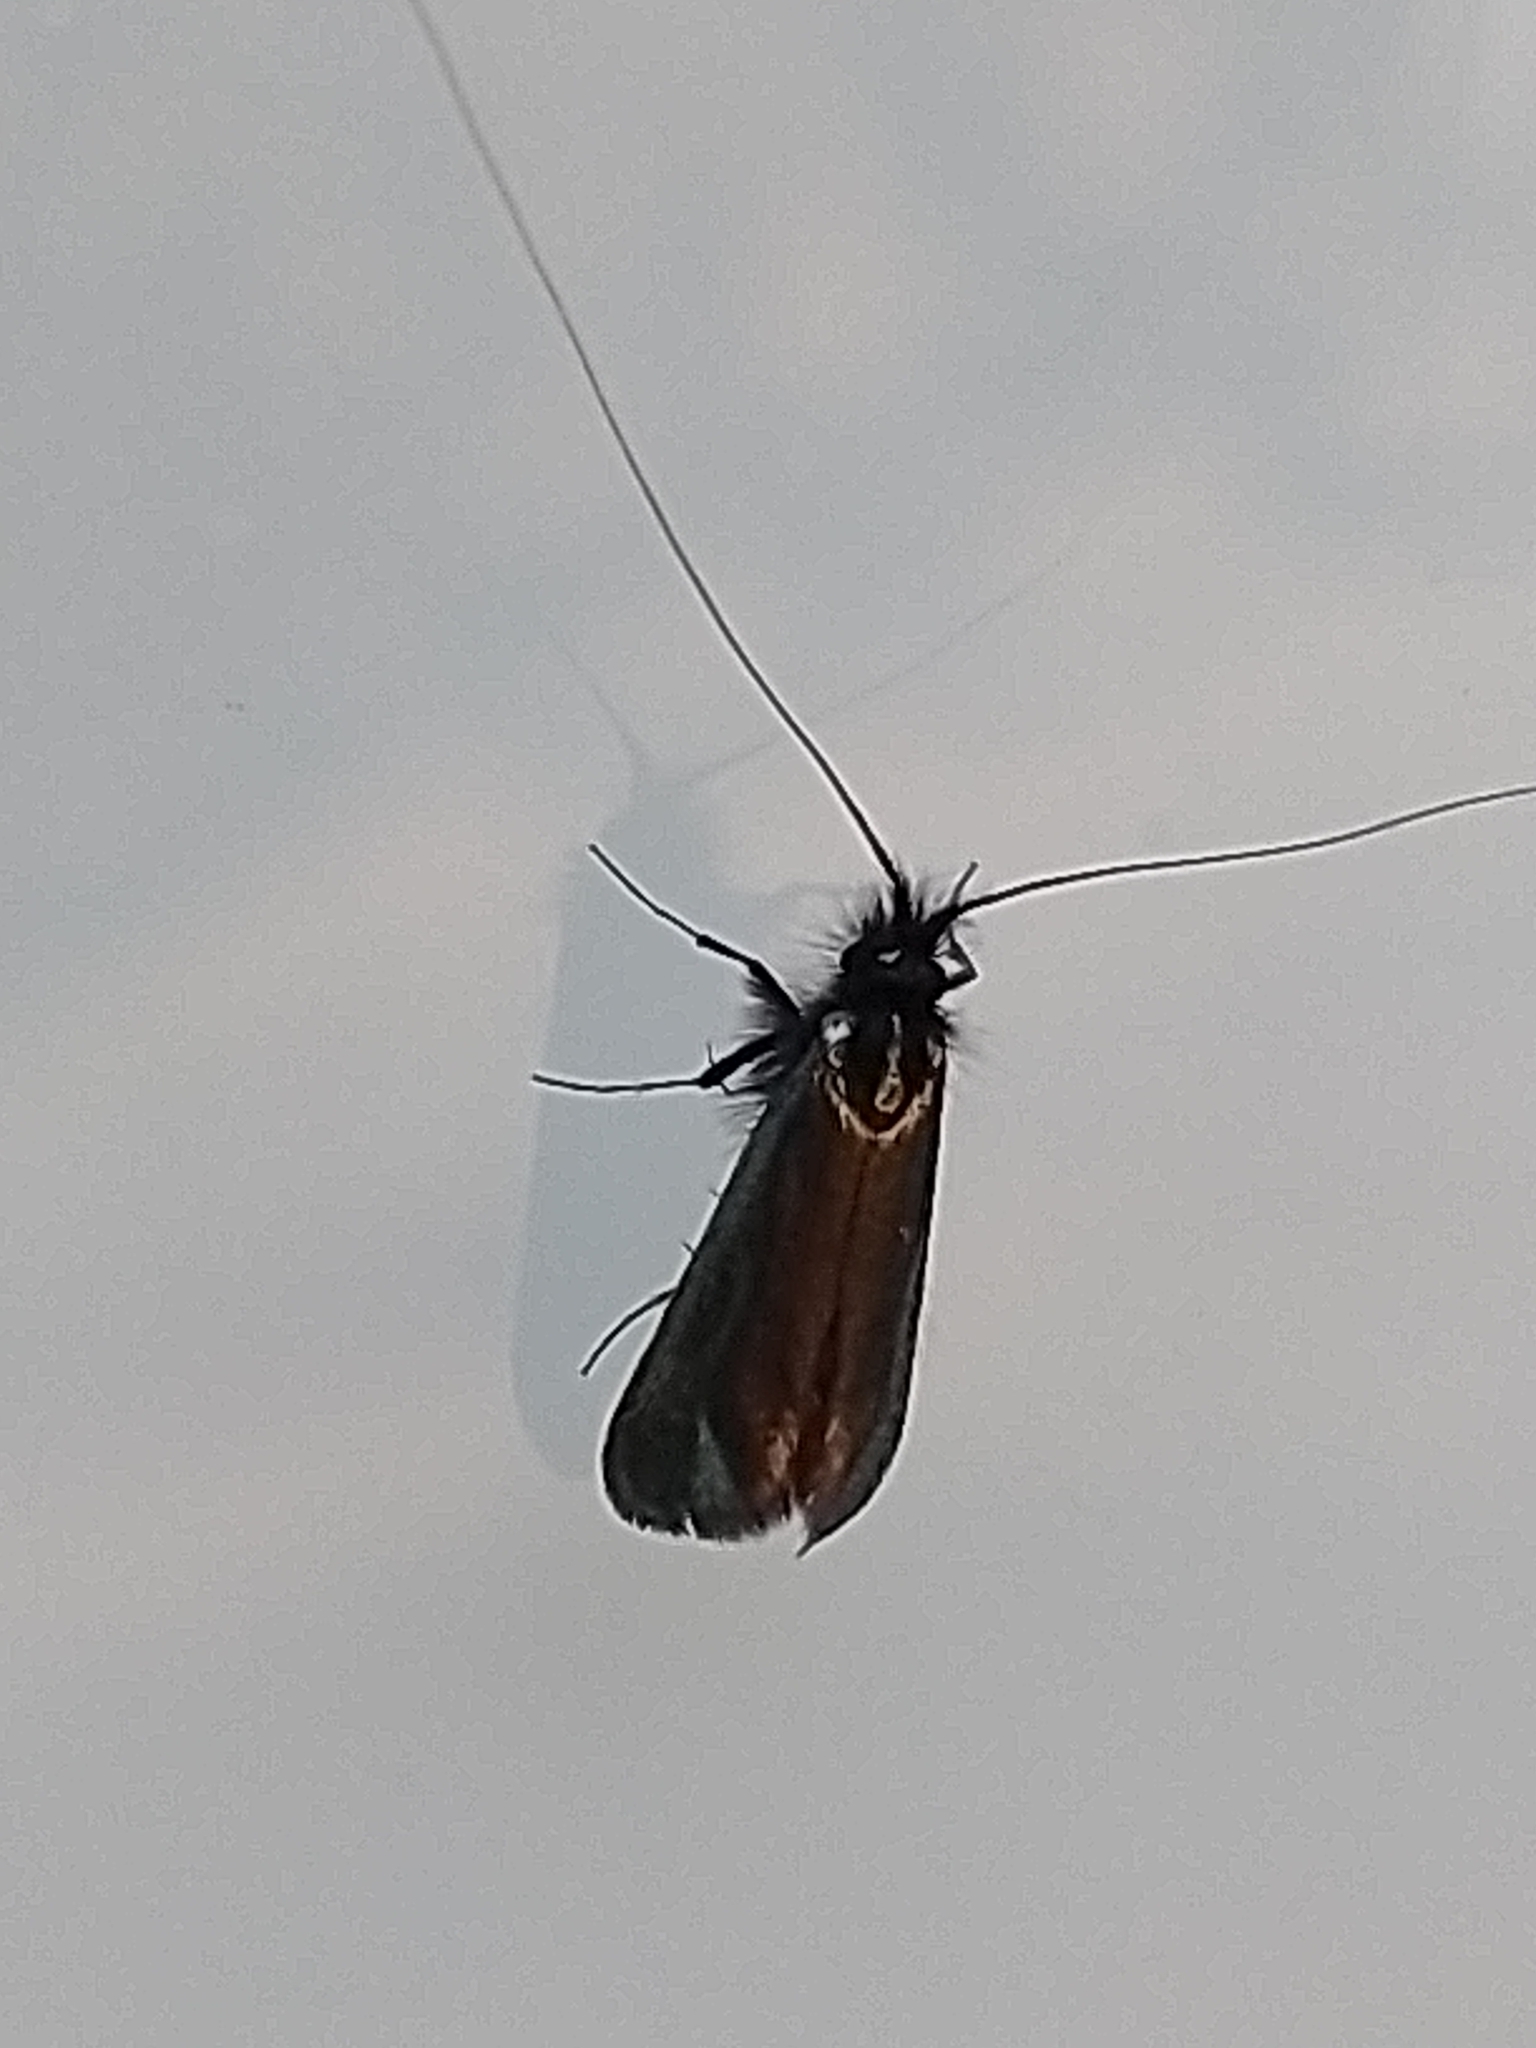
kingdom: Animalia
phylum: Arthropoda
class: Insecta
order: Lepidoptera
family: Adelidae
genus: Adela
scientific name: Adela viridella
